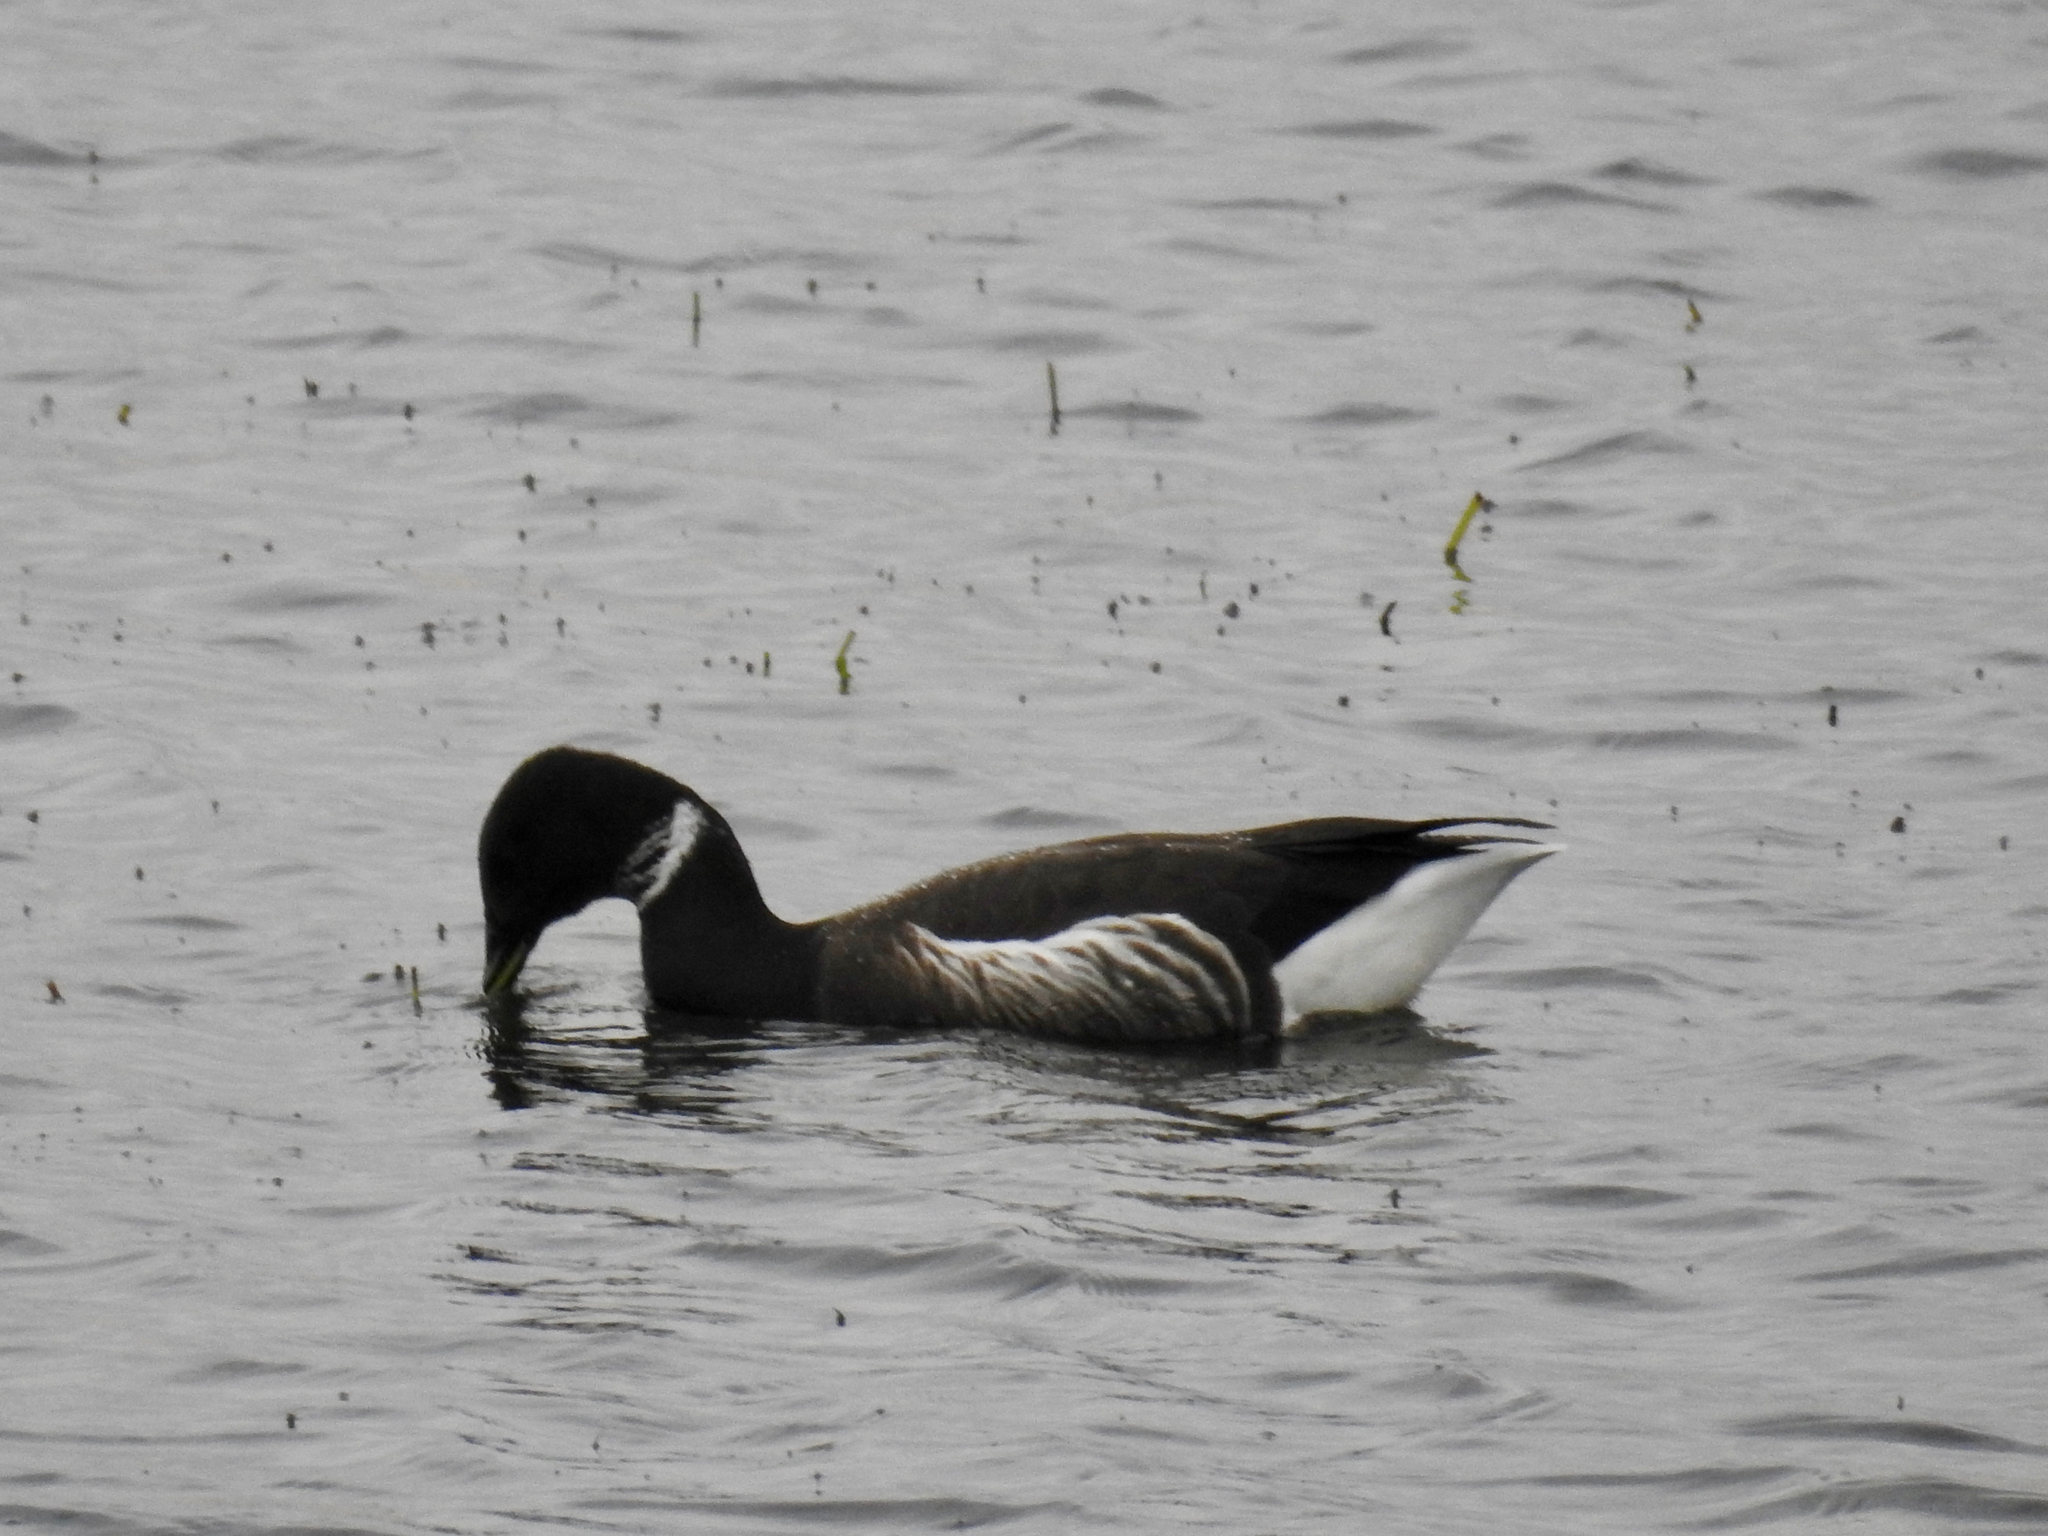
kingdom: Animalia
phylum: Chordata
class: Aves
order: Anseriformes
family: Anatidae
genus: Branta
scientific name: Branta bernicla
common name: Brant goose
